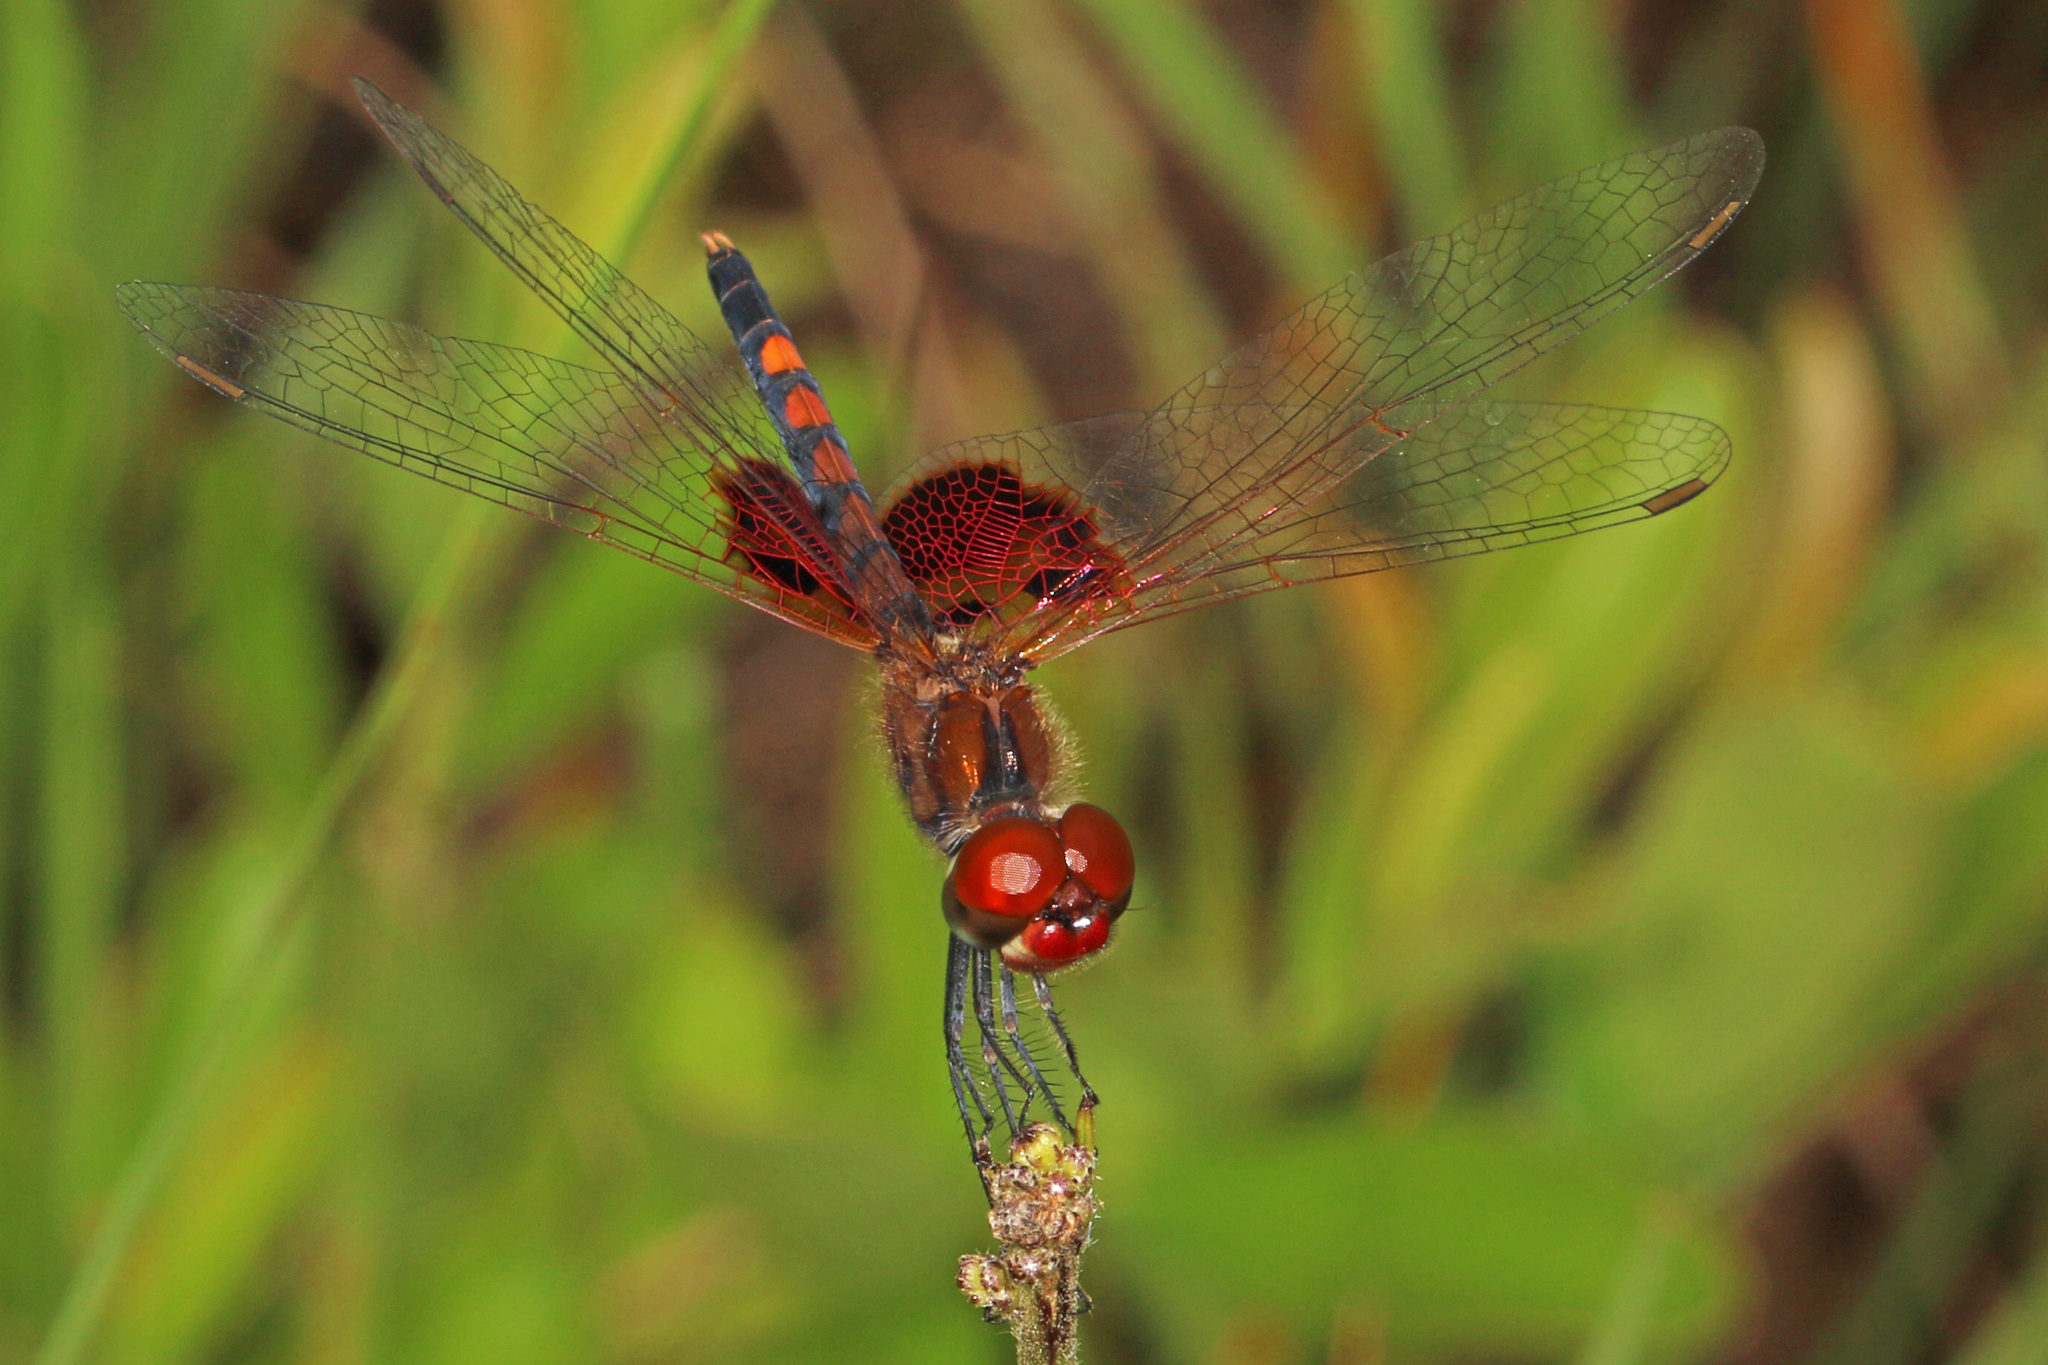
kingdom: Animalia
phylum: Arthropoda
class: Insecta
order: Odonata
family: Libellulidae
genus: Celithemis
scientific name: Celithemis amanda
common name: Amanda's pennant
